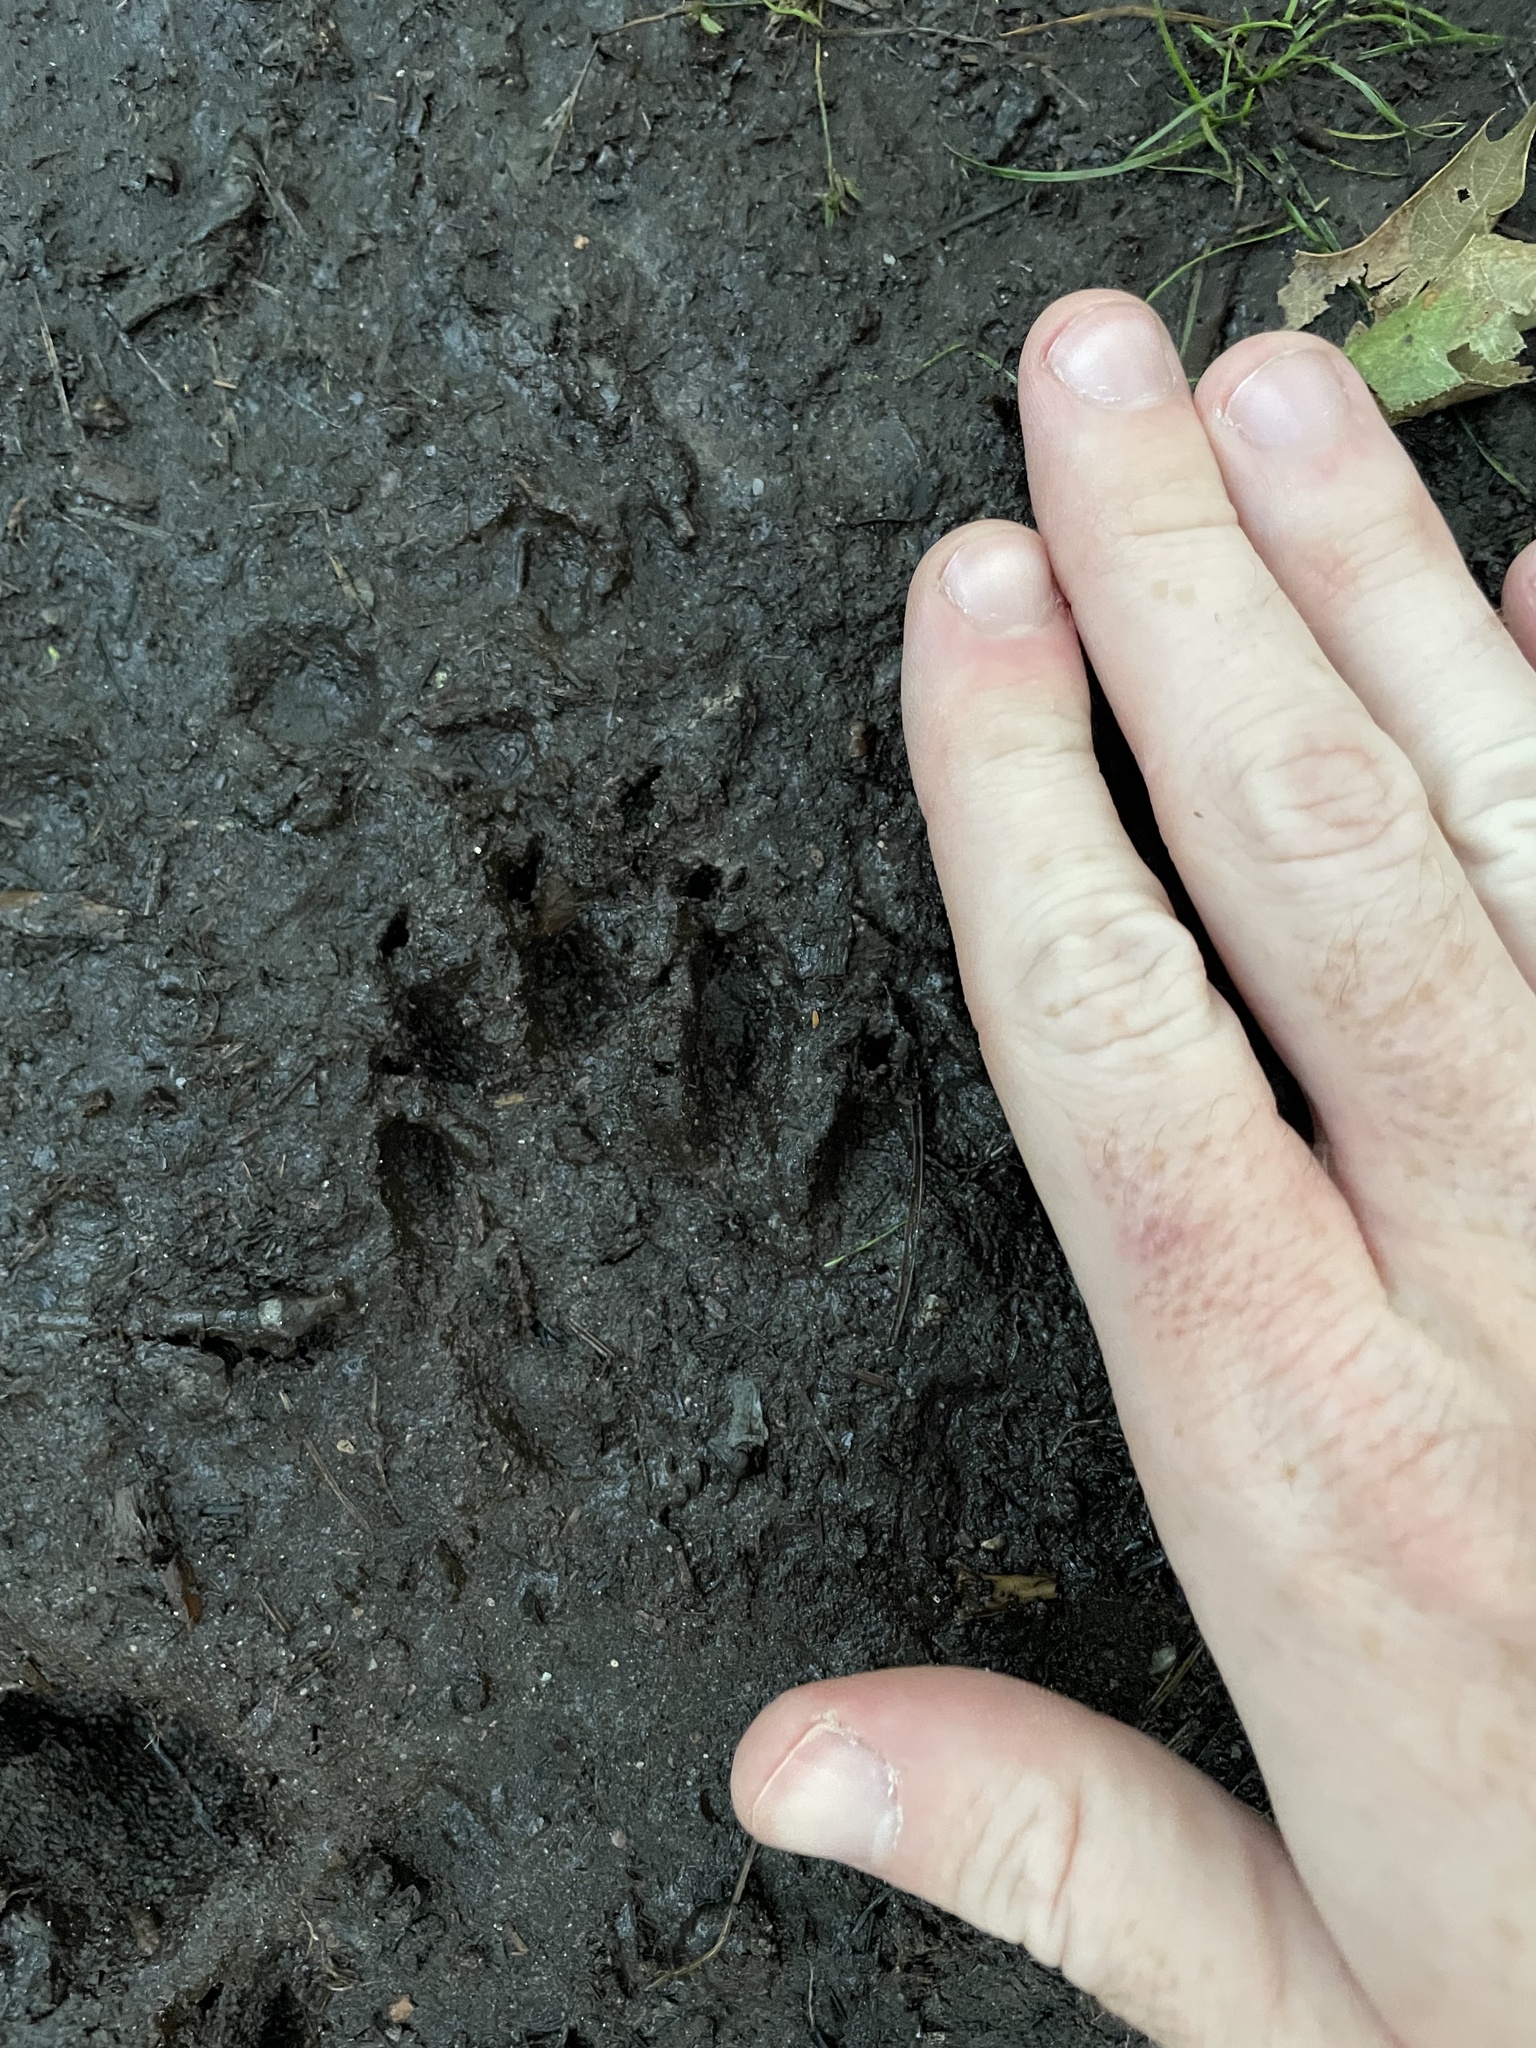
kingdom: Animalia
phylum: Chordata
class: Mammalia
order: Carnivora
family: Procyonidae
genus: Procyon
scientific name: Procyon lotor
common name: Raccoon
